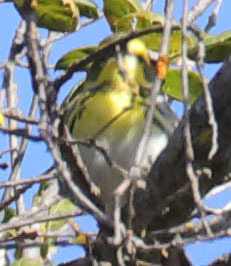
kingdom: Animalia
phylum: Chordata
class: Aves
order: Passeriformes
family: Parulidae
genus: Setophaga
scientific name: Setophaga townsendi
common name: Townsend's warbler
